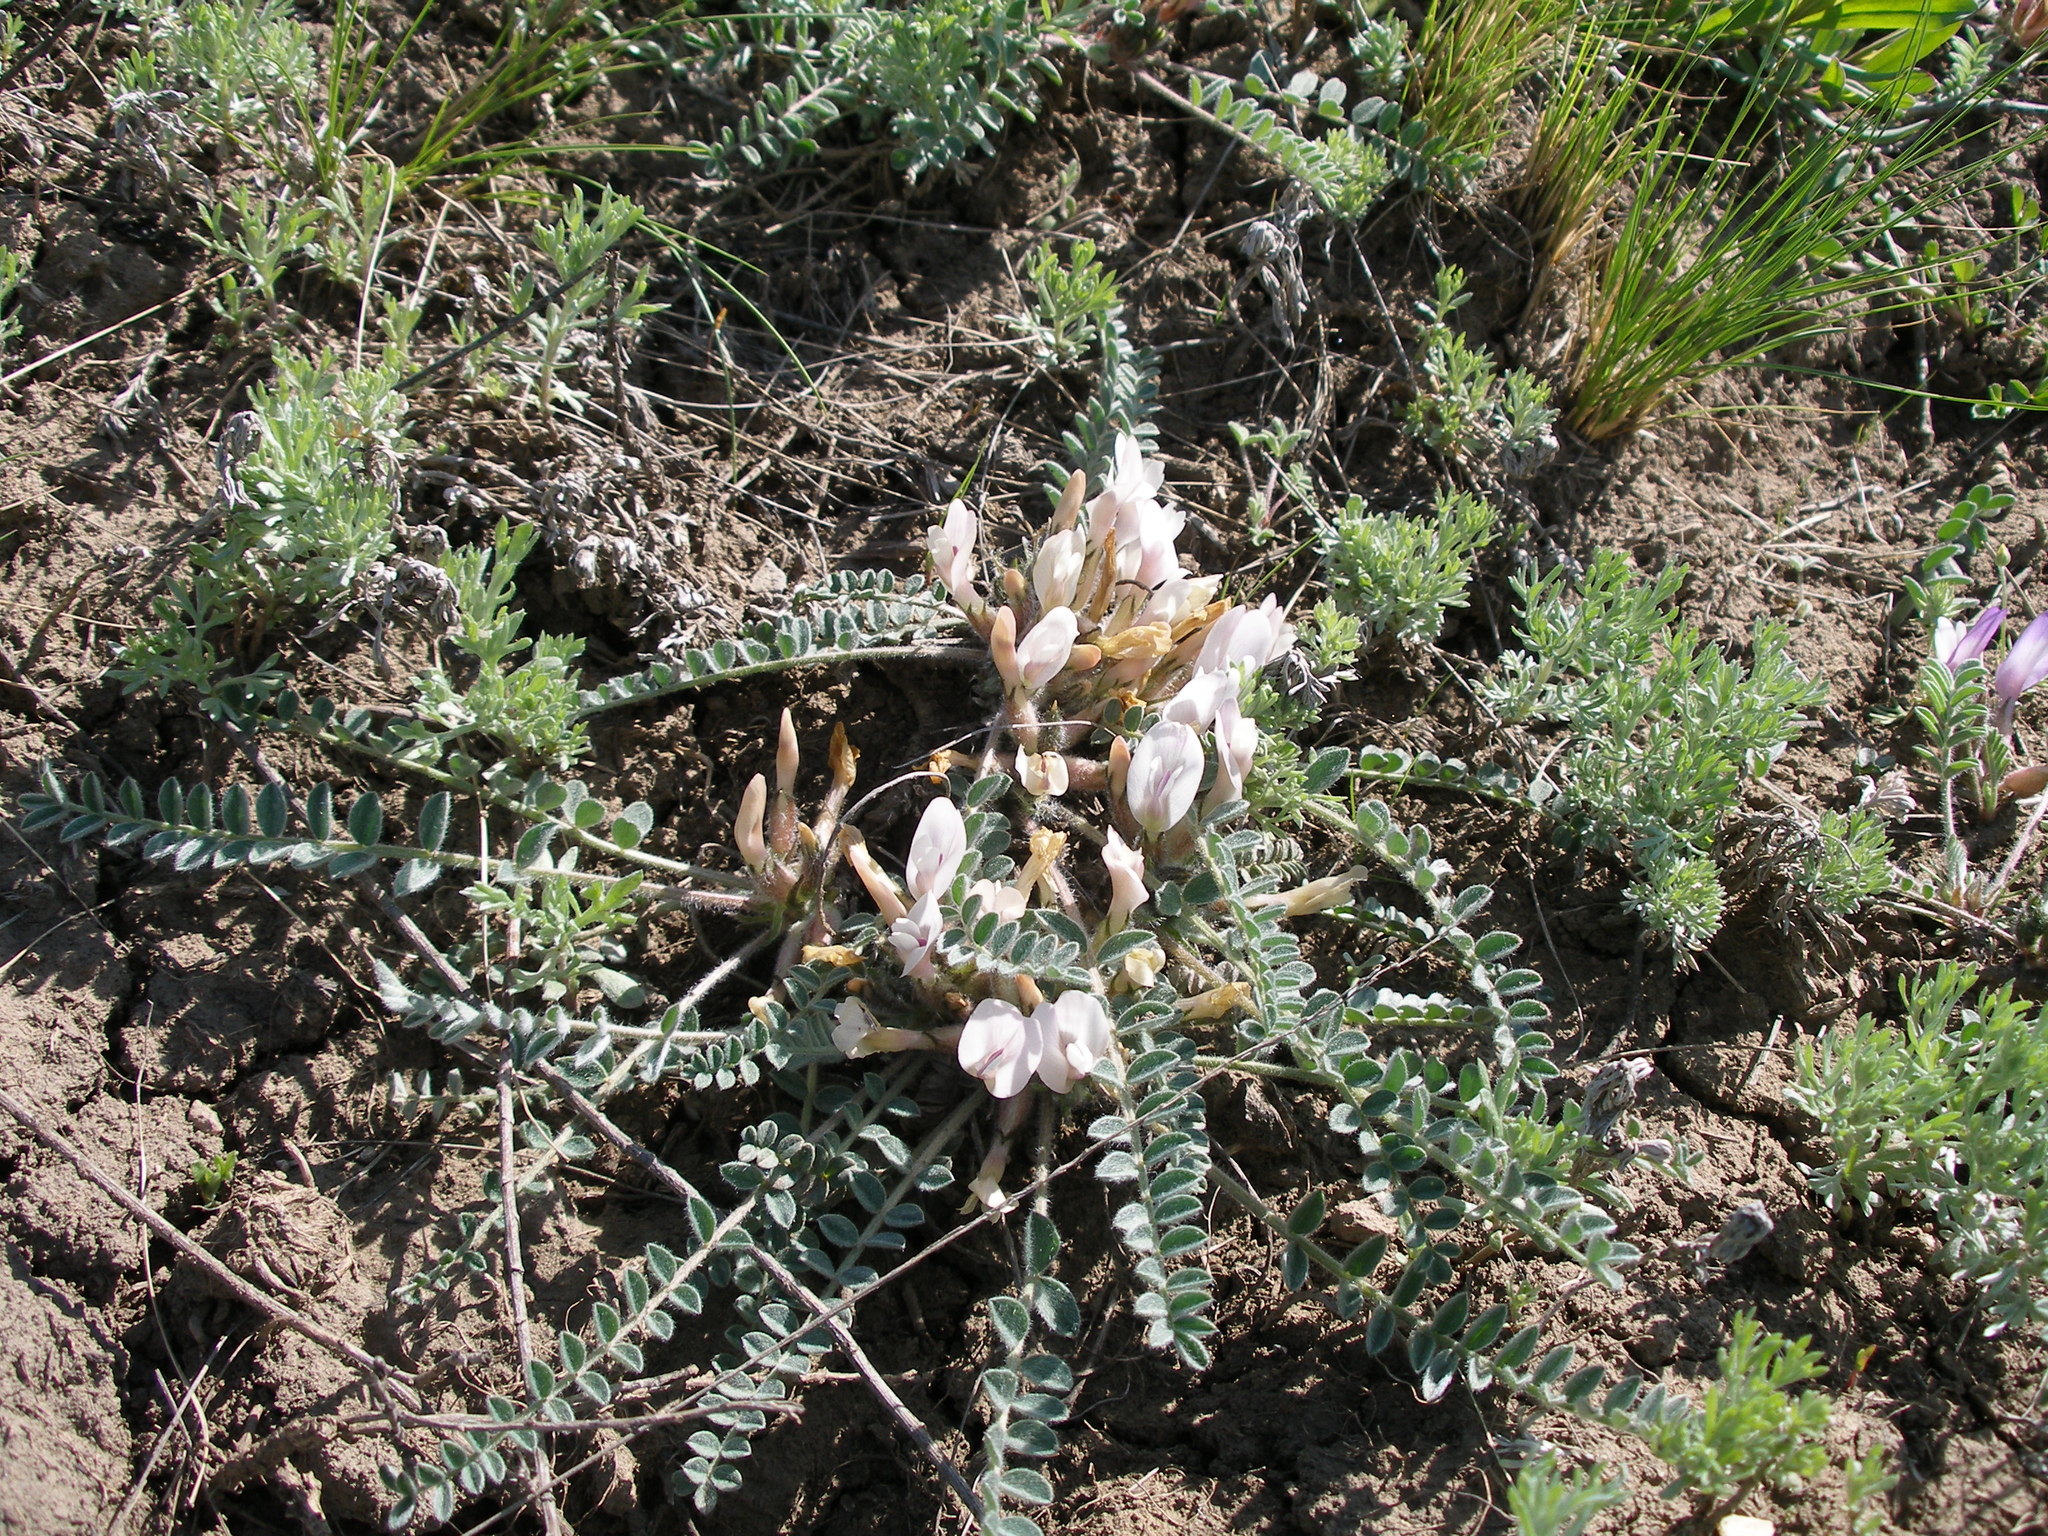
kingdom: Plantae
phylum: Tracheophyta
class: Magnoliopsida
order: Fabales
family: Fabaceae
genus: Astragalus
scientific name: Astragalus testiculatus
